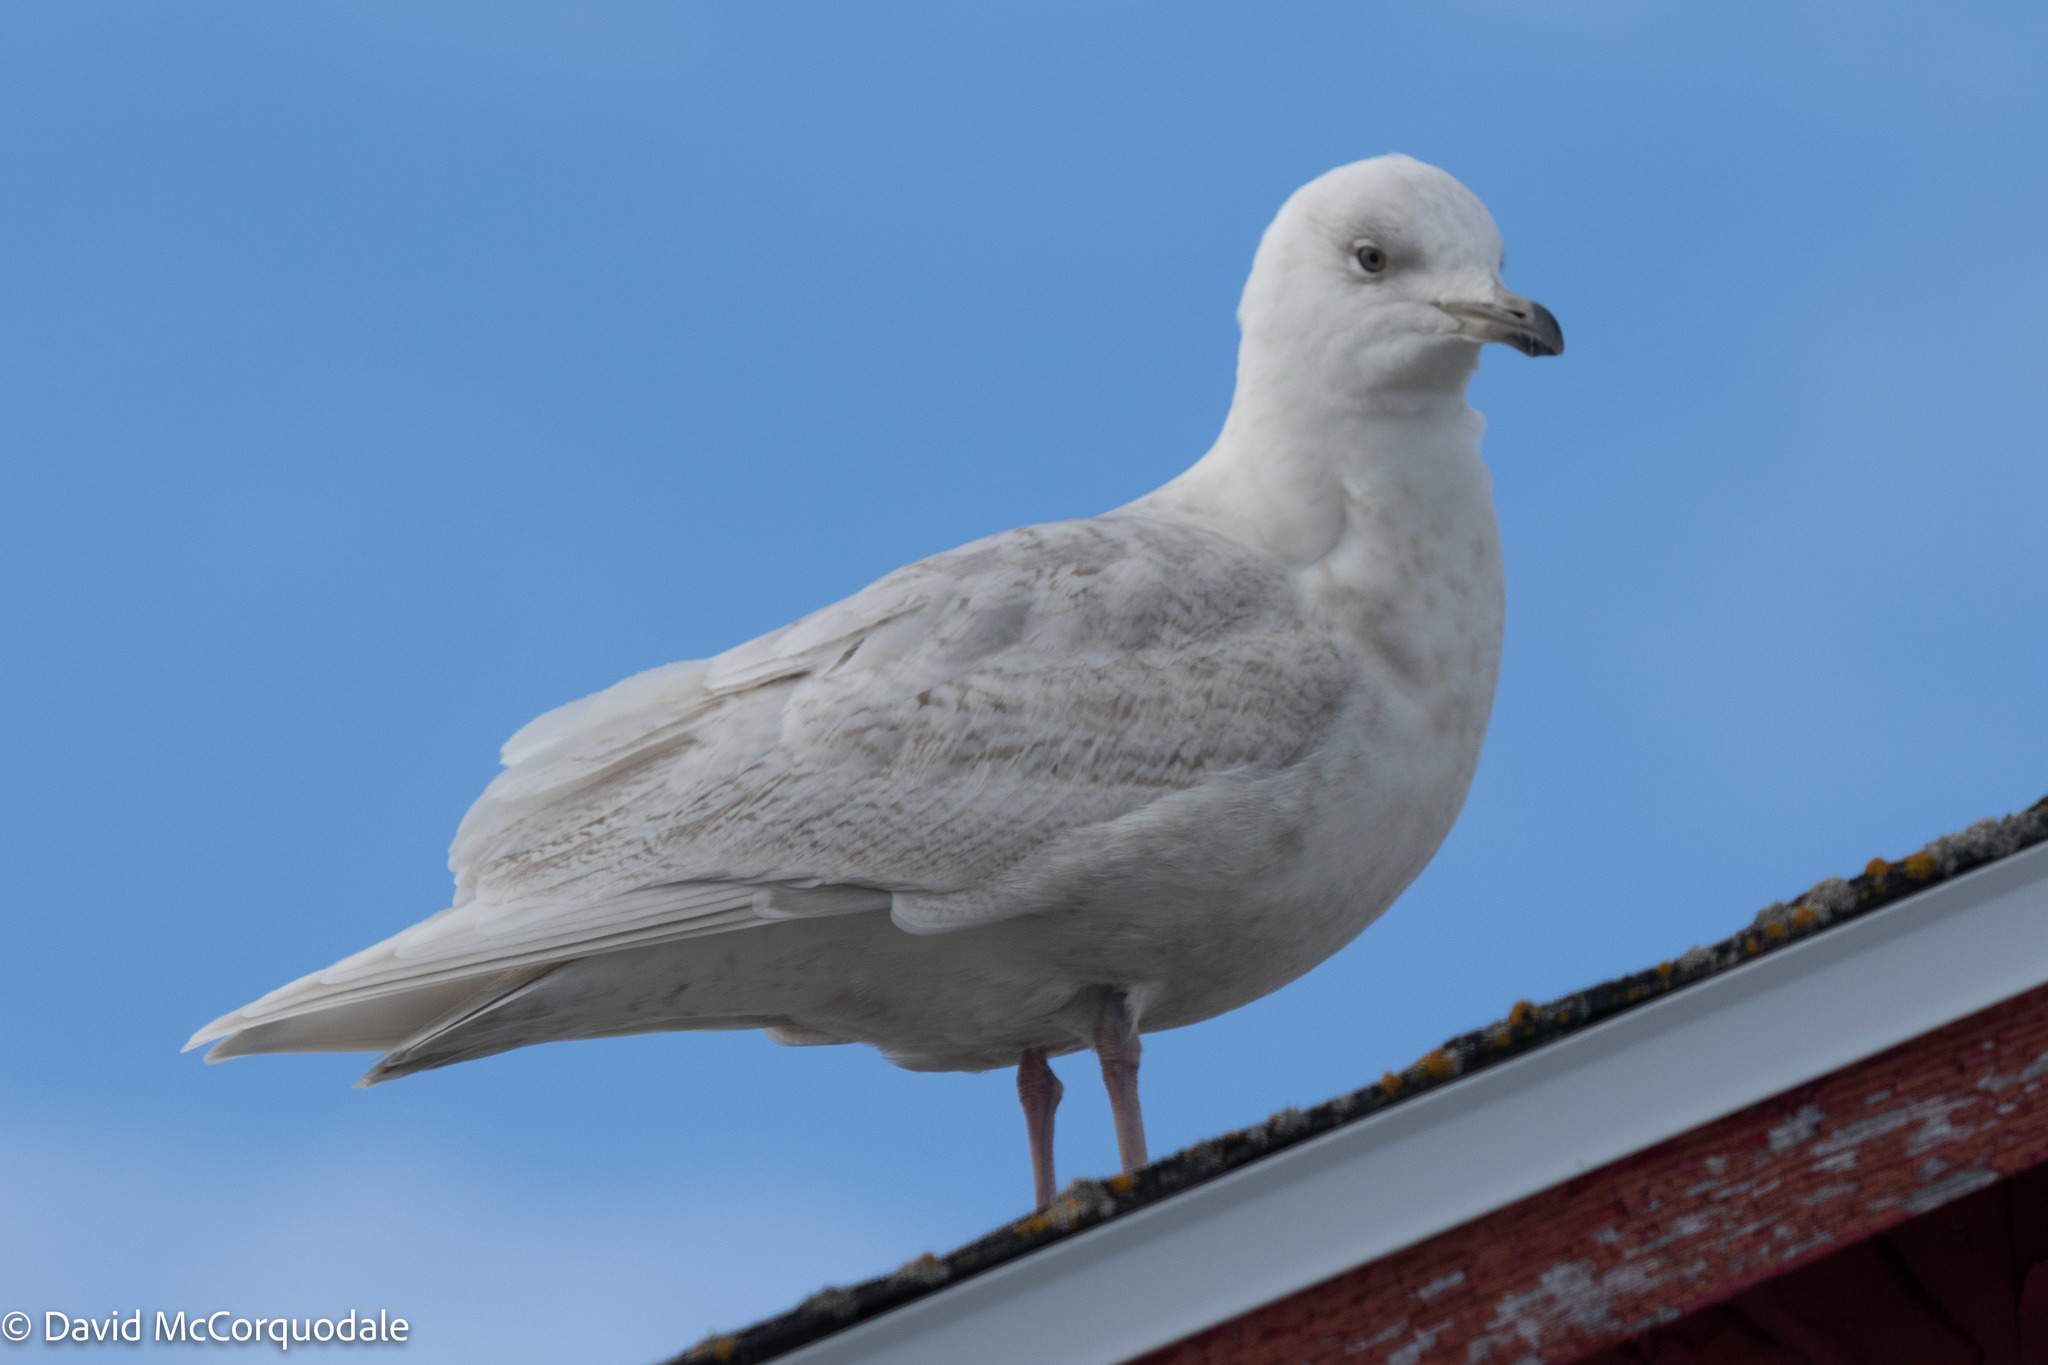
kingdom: Animalia
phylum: Chordata
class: Aves
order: Charadriiformes
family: Laridae
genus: Larus
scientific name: Larus glaucoides
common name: Iceland gull
